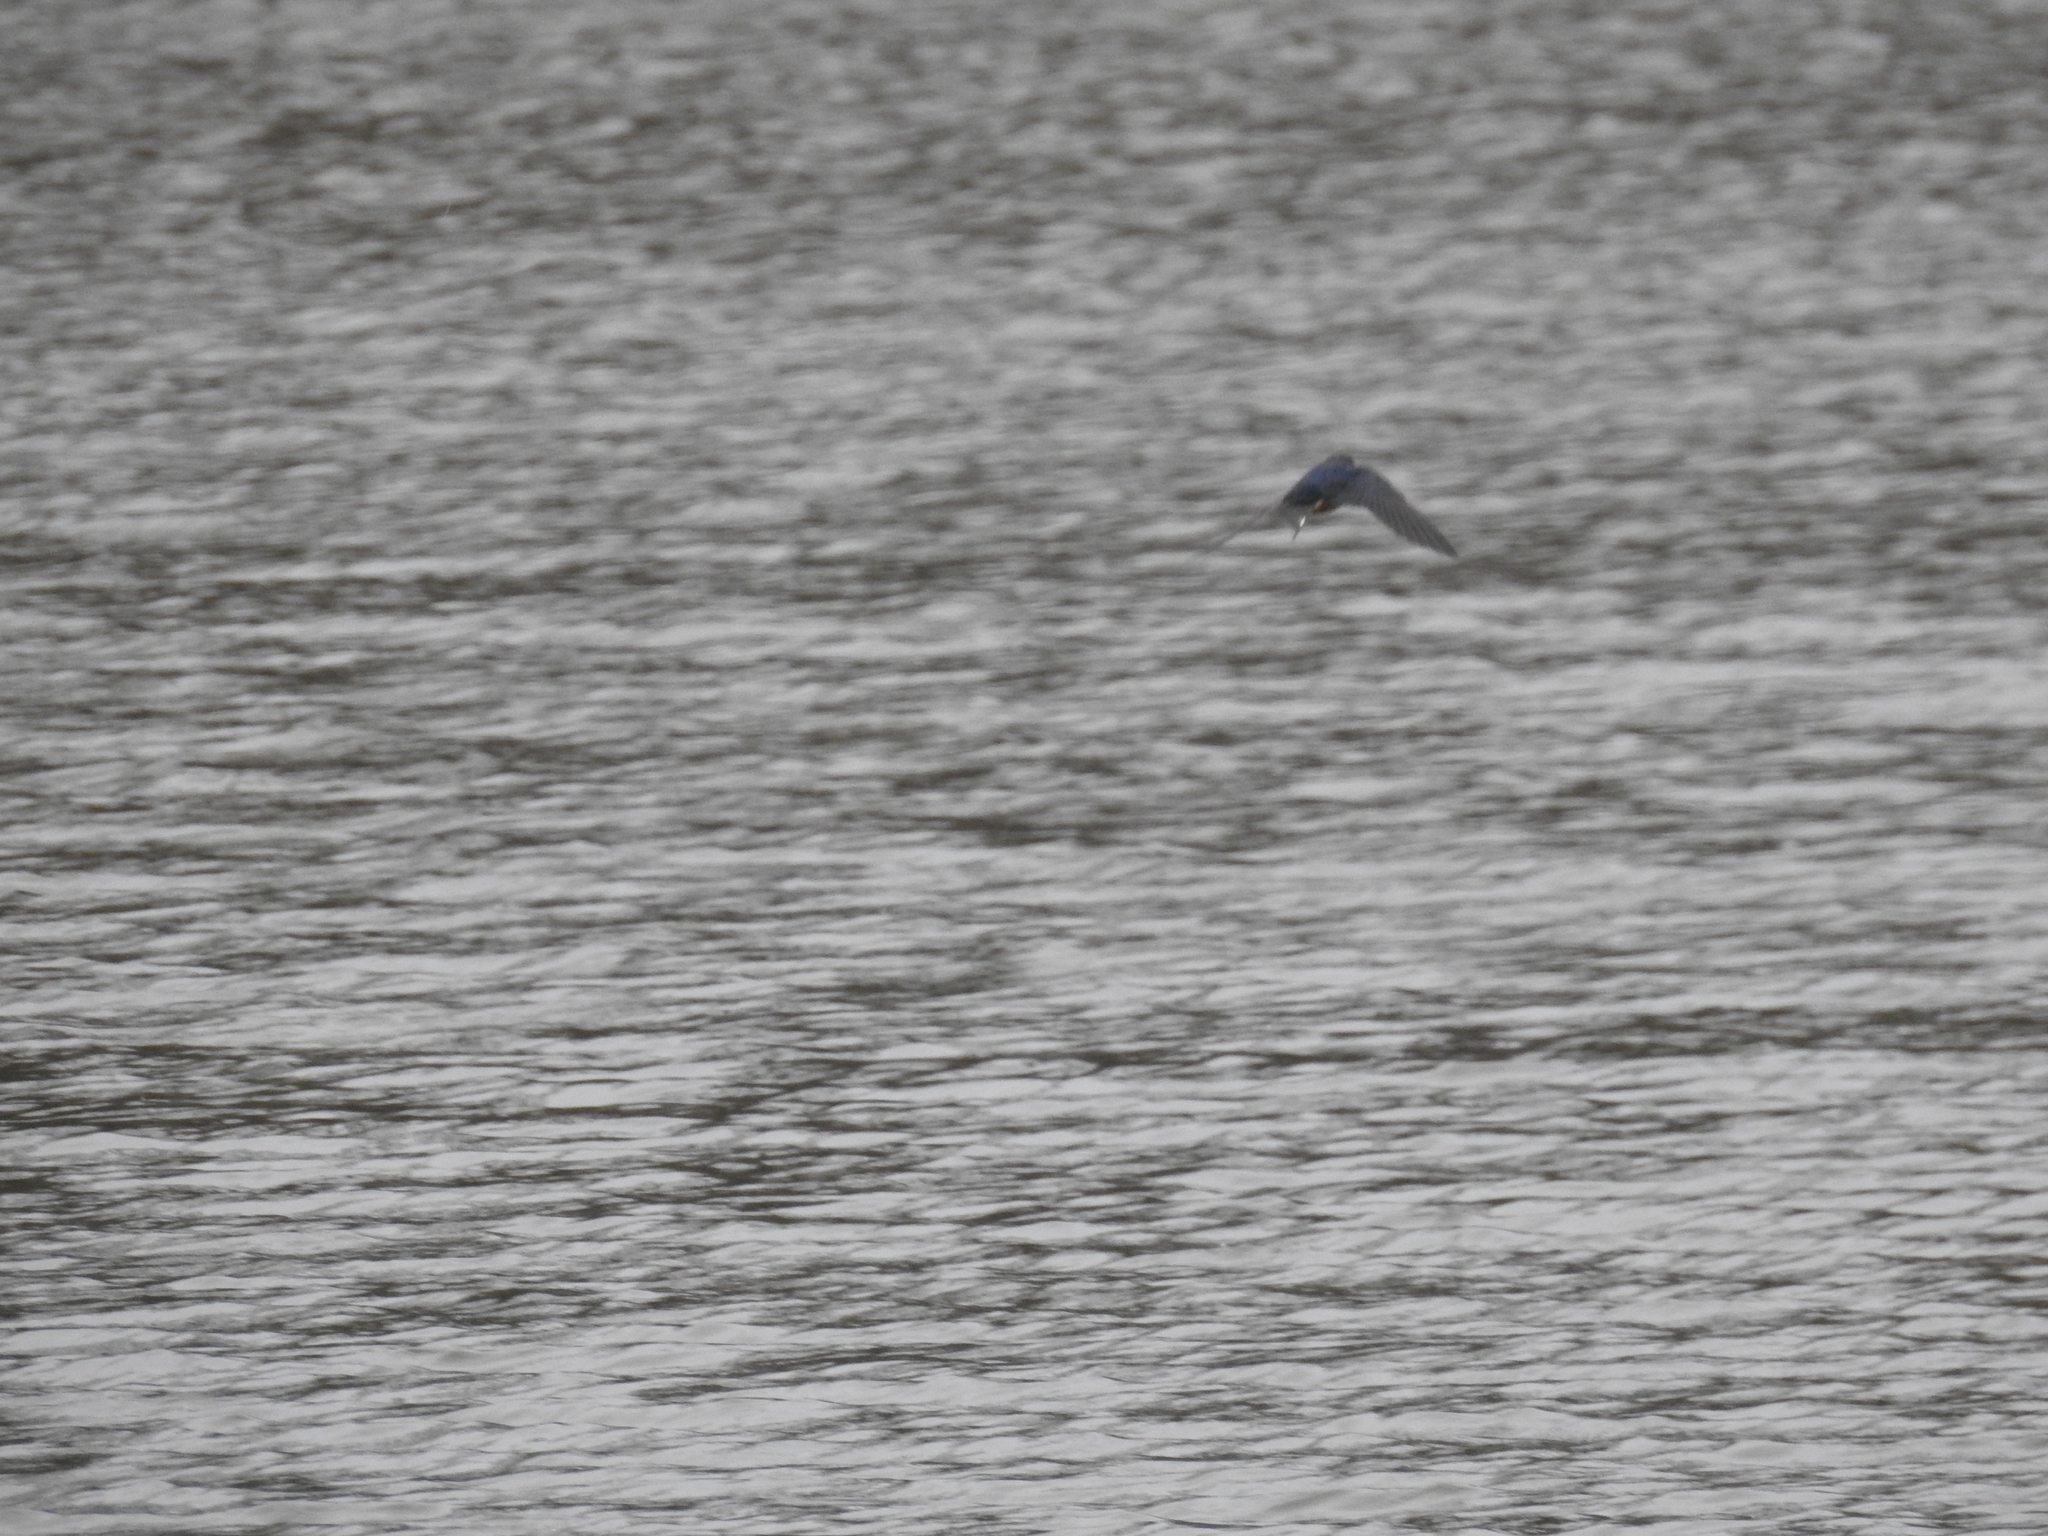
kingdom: Animalia
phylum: Chordata
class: Aves
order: Passeriformes
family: Hirundinidae
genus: Hirundo
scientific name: Hirundo rustica
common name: Barn swallow
